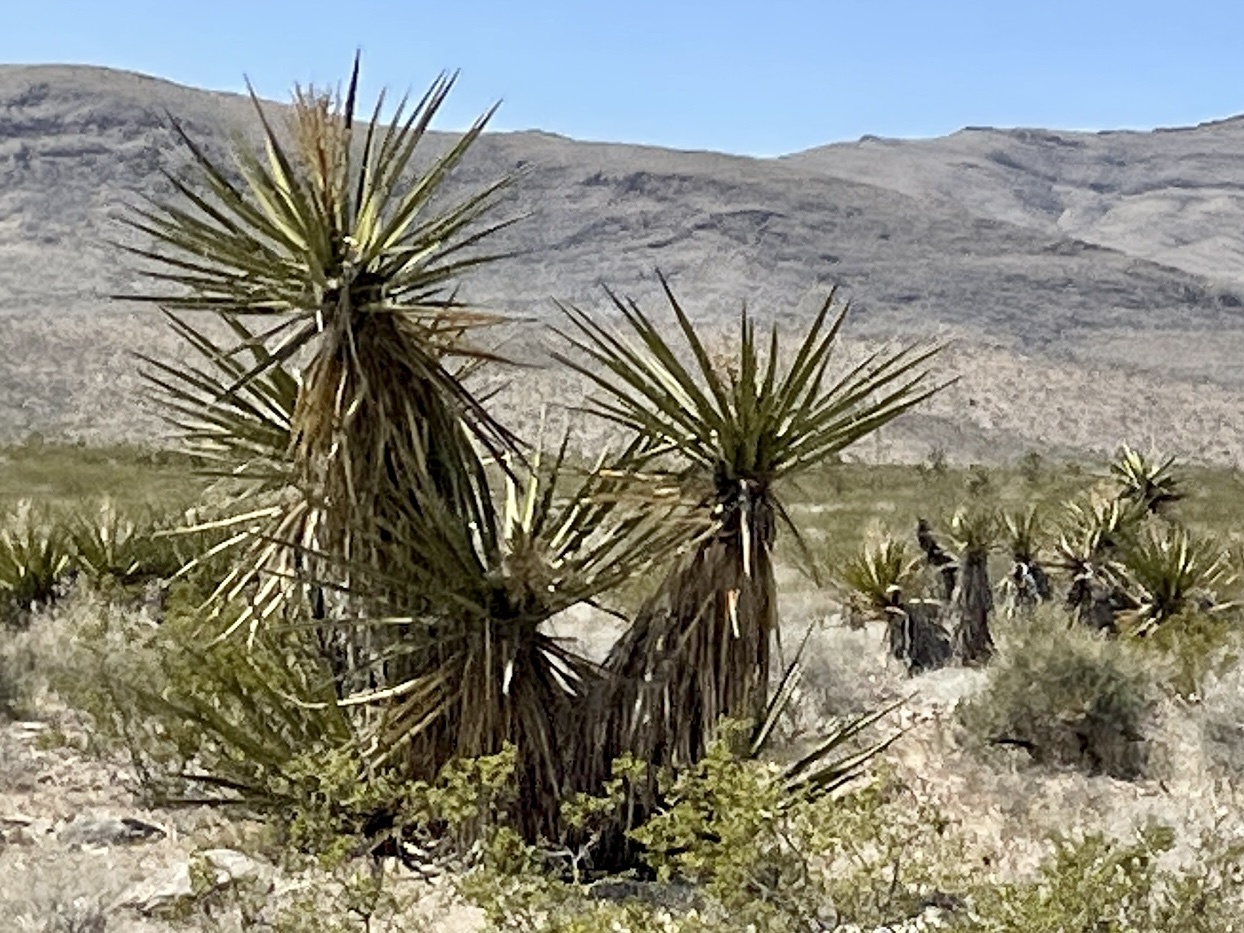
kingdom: Plantae
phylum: Tracheophyta
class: Liliopsida
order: Asparagales
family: Asparagaceae
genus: Yucca
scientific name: Yucca schidigera
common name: Mojave yucca
